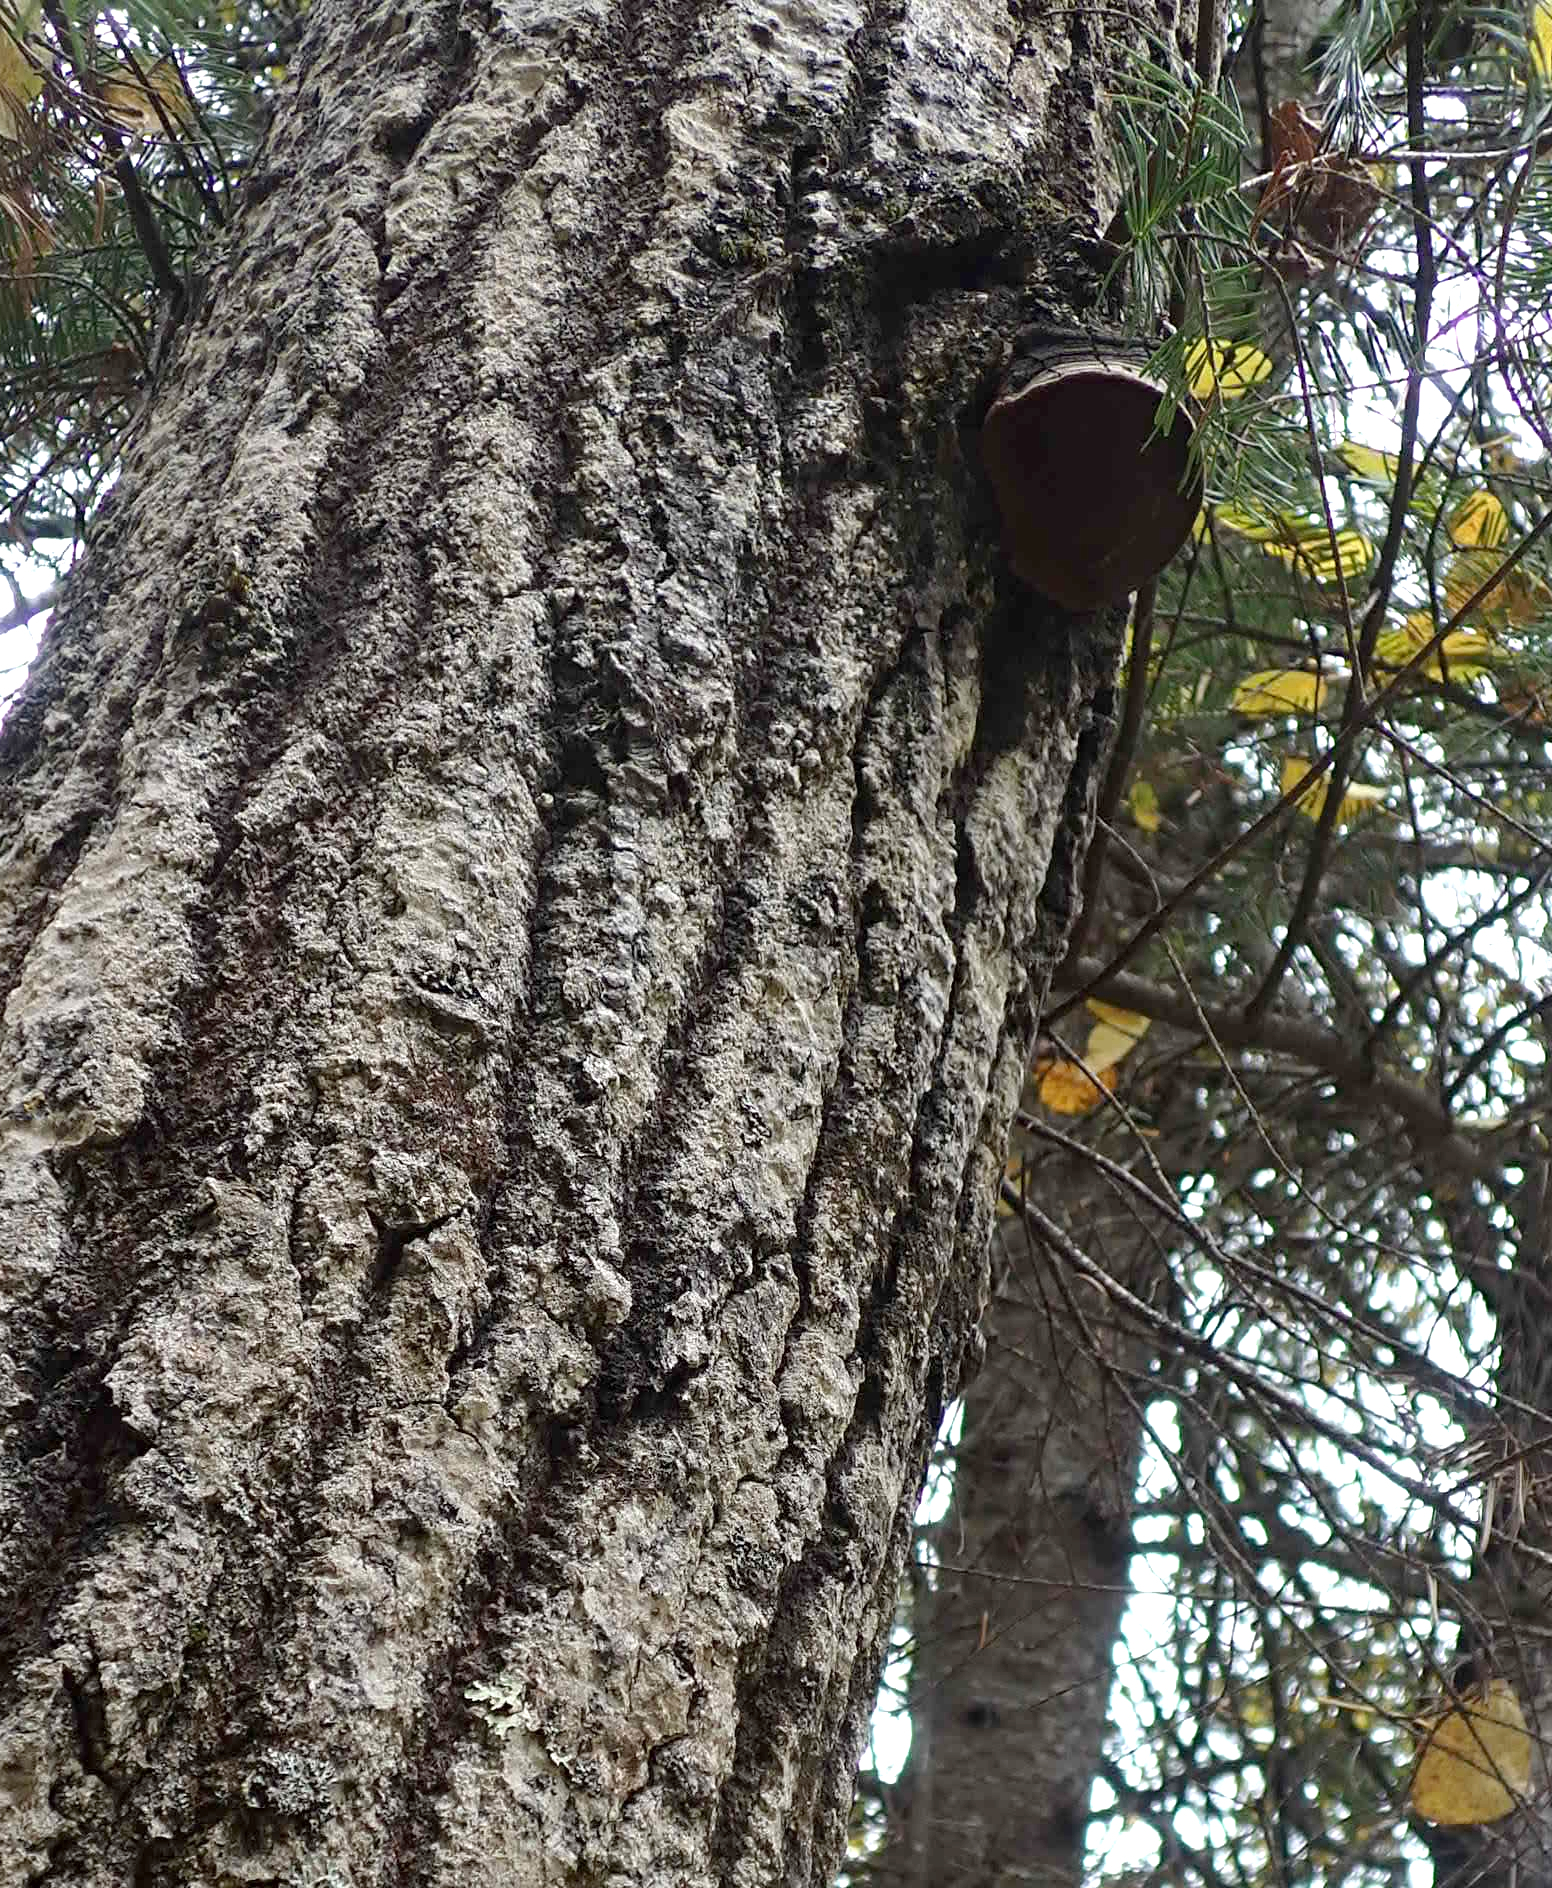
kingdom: Fungi
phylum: Basidiomycota
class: Agaricomycetes
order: Hymenochaetales
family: Hymenochaetaceae
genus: Phellinus
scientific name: Phellinus tremulae
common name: Aspen bracket
